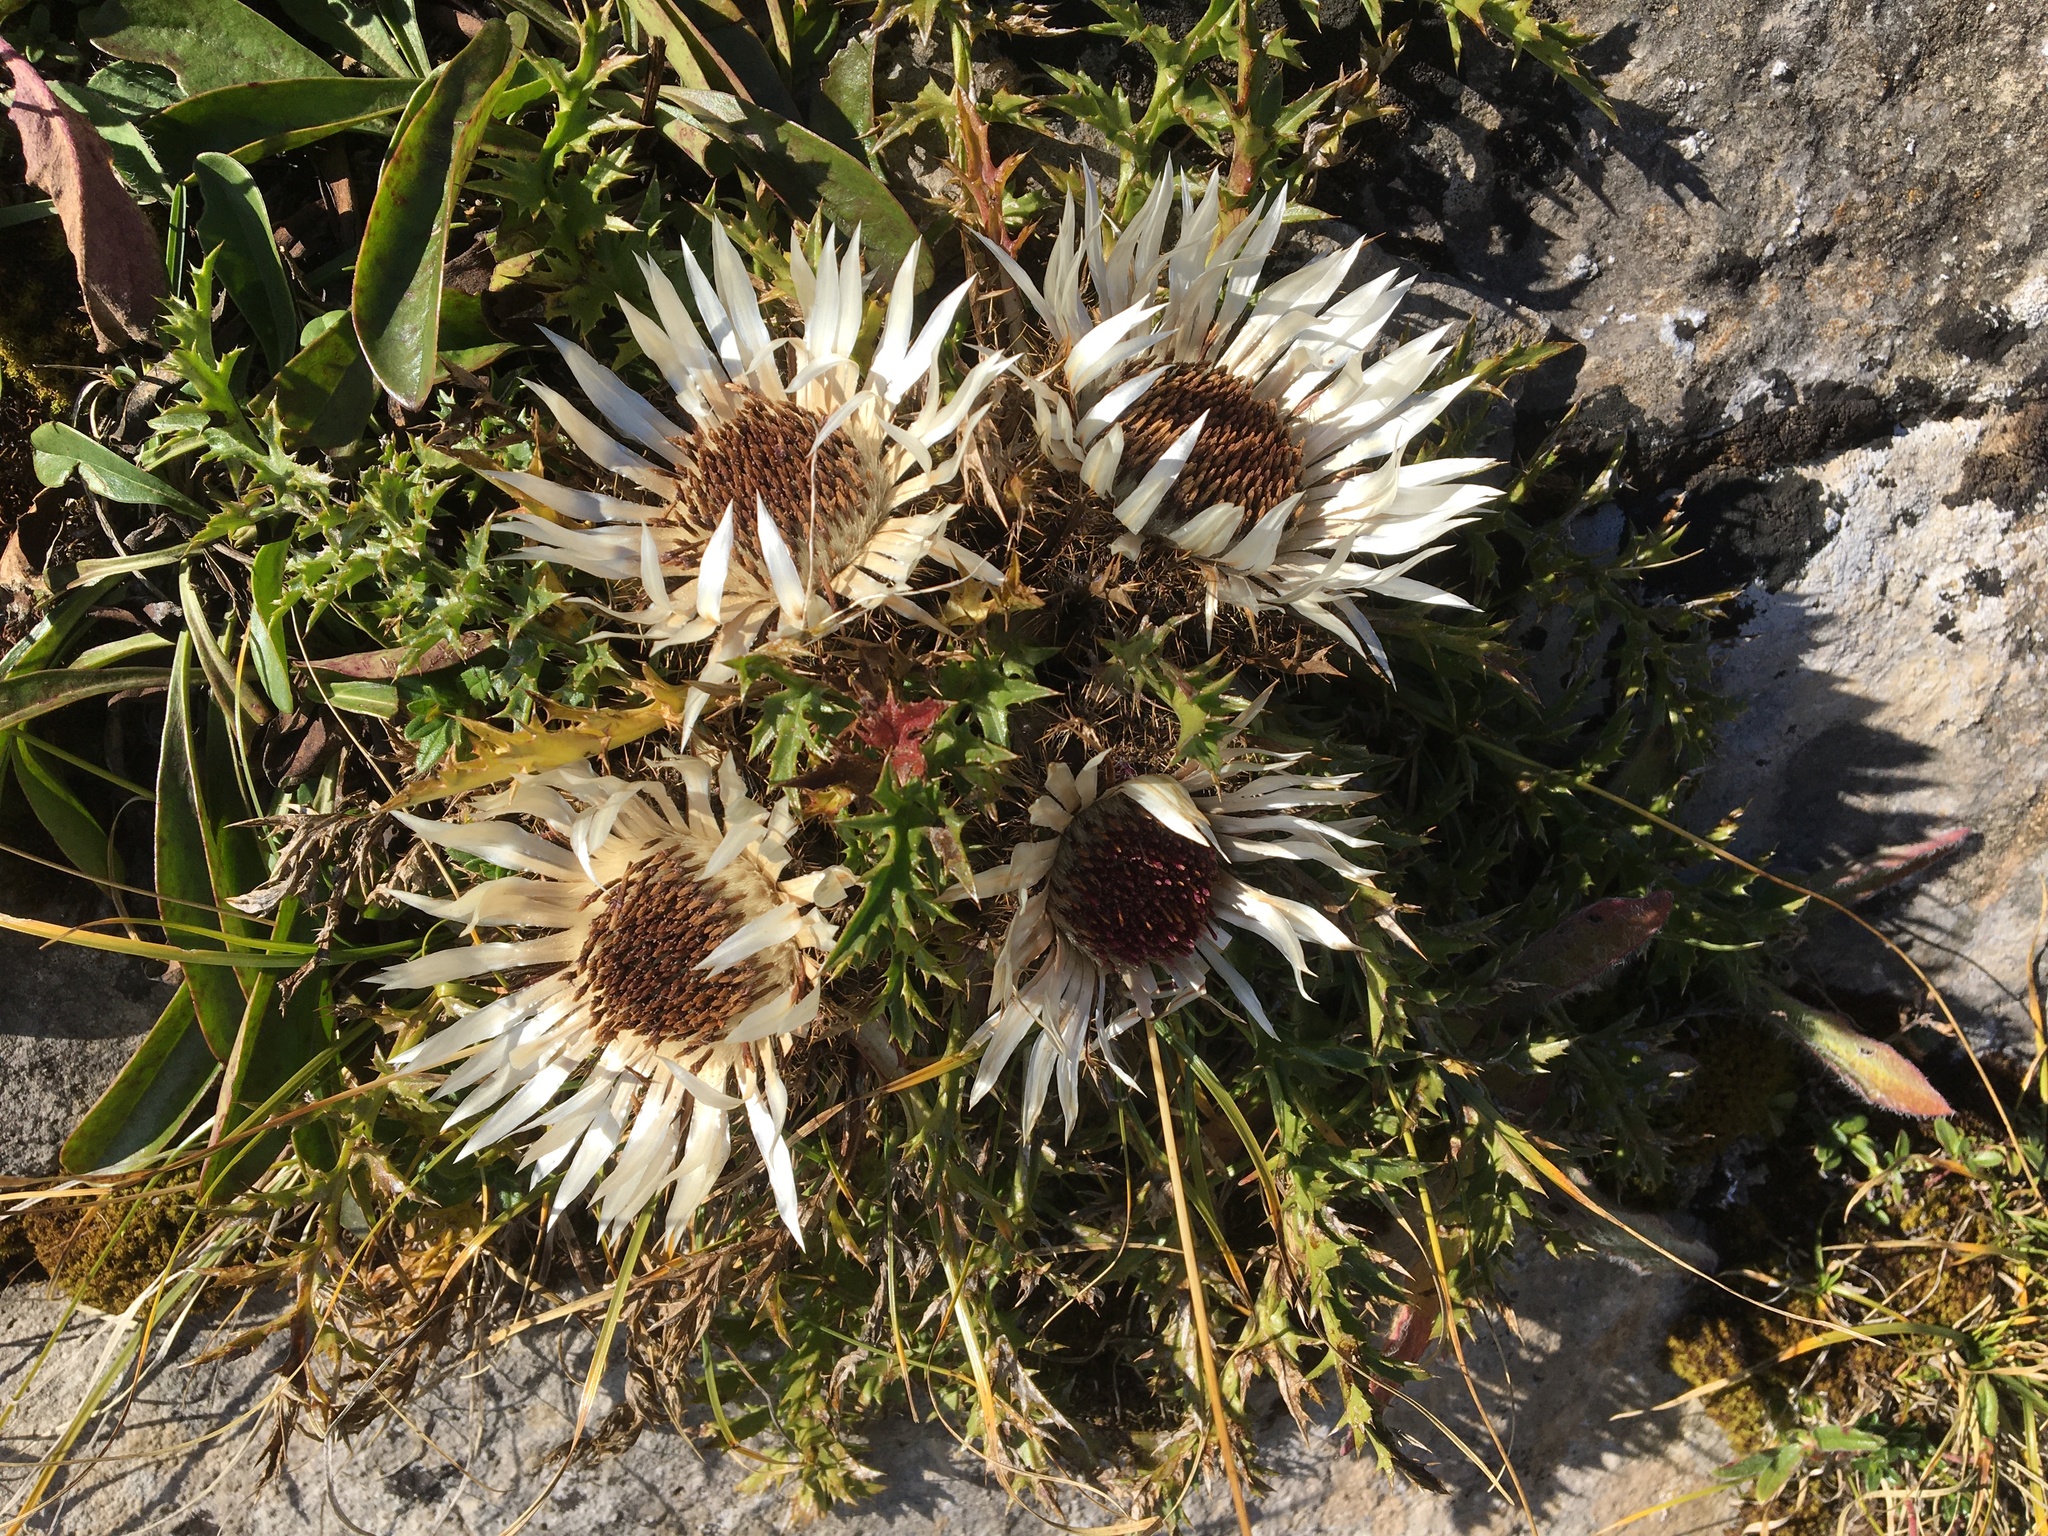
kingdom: Plantae
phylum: Tracheophyta
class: Magnoliopsida
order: Asterales
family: Asteraceae
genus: Carlina
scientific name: Carlina acaulis
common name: Stemless carline thistle
